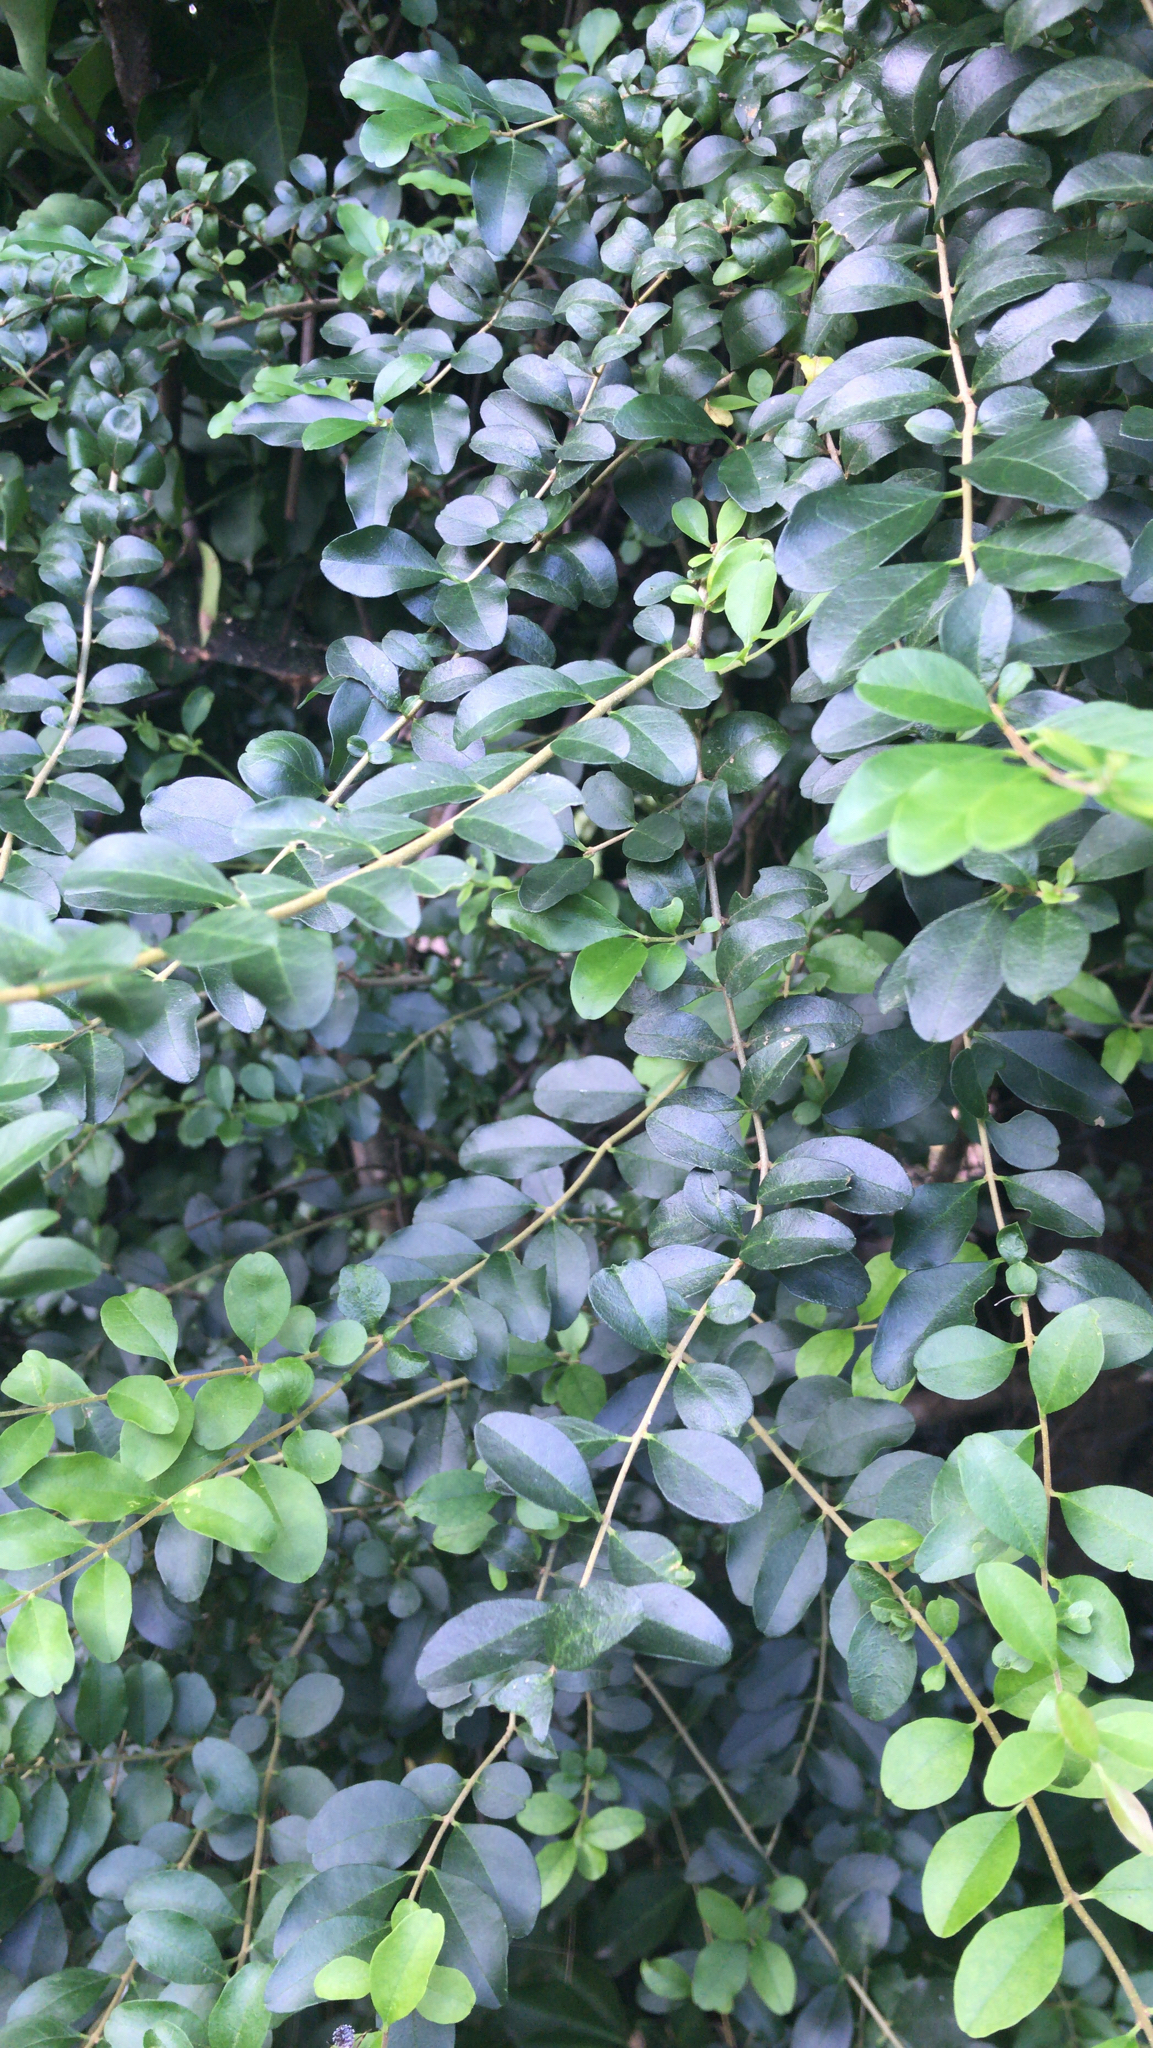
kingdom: Plantae
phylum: Tracheophyta
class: Magnoliopsida
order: Lamiales
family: Oleaceae
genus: Ligustrum
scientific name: Ligustrum sinense
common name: Chinese privet
